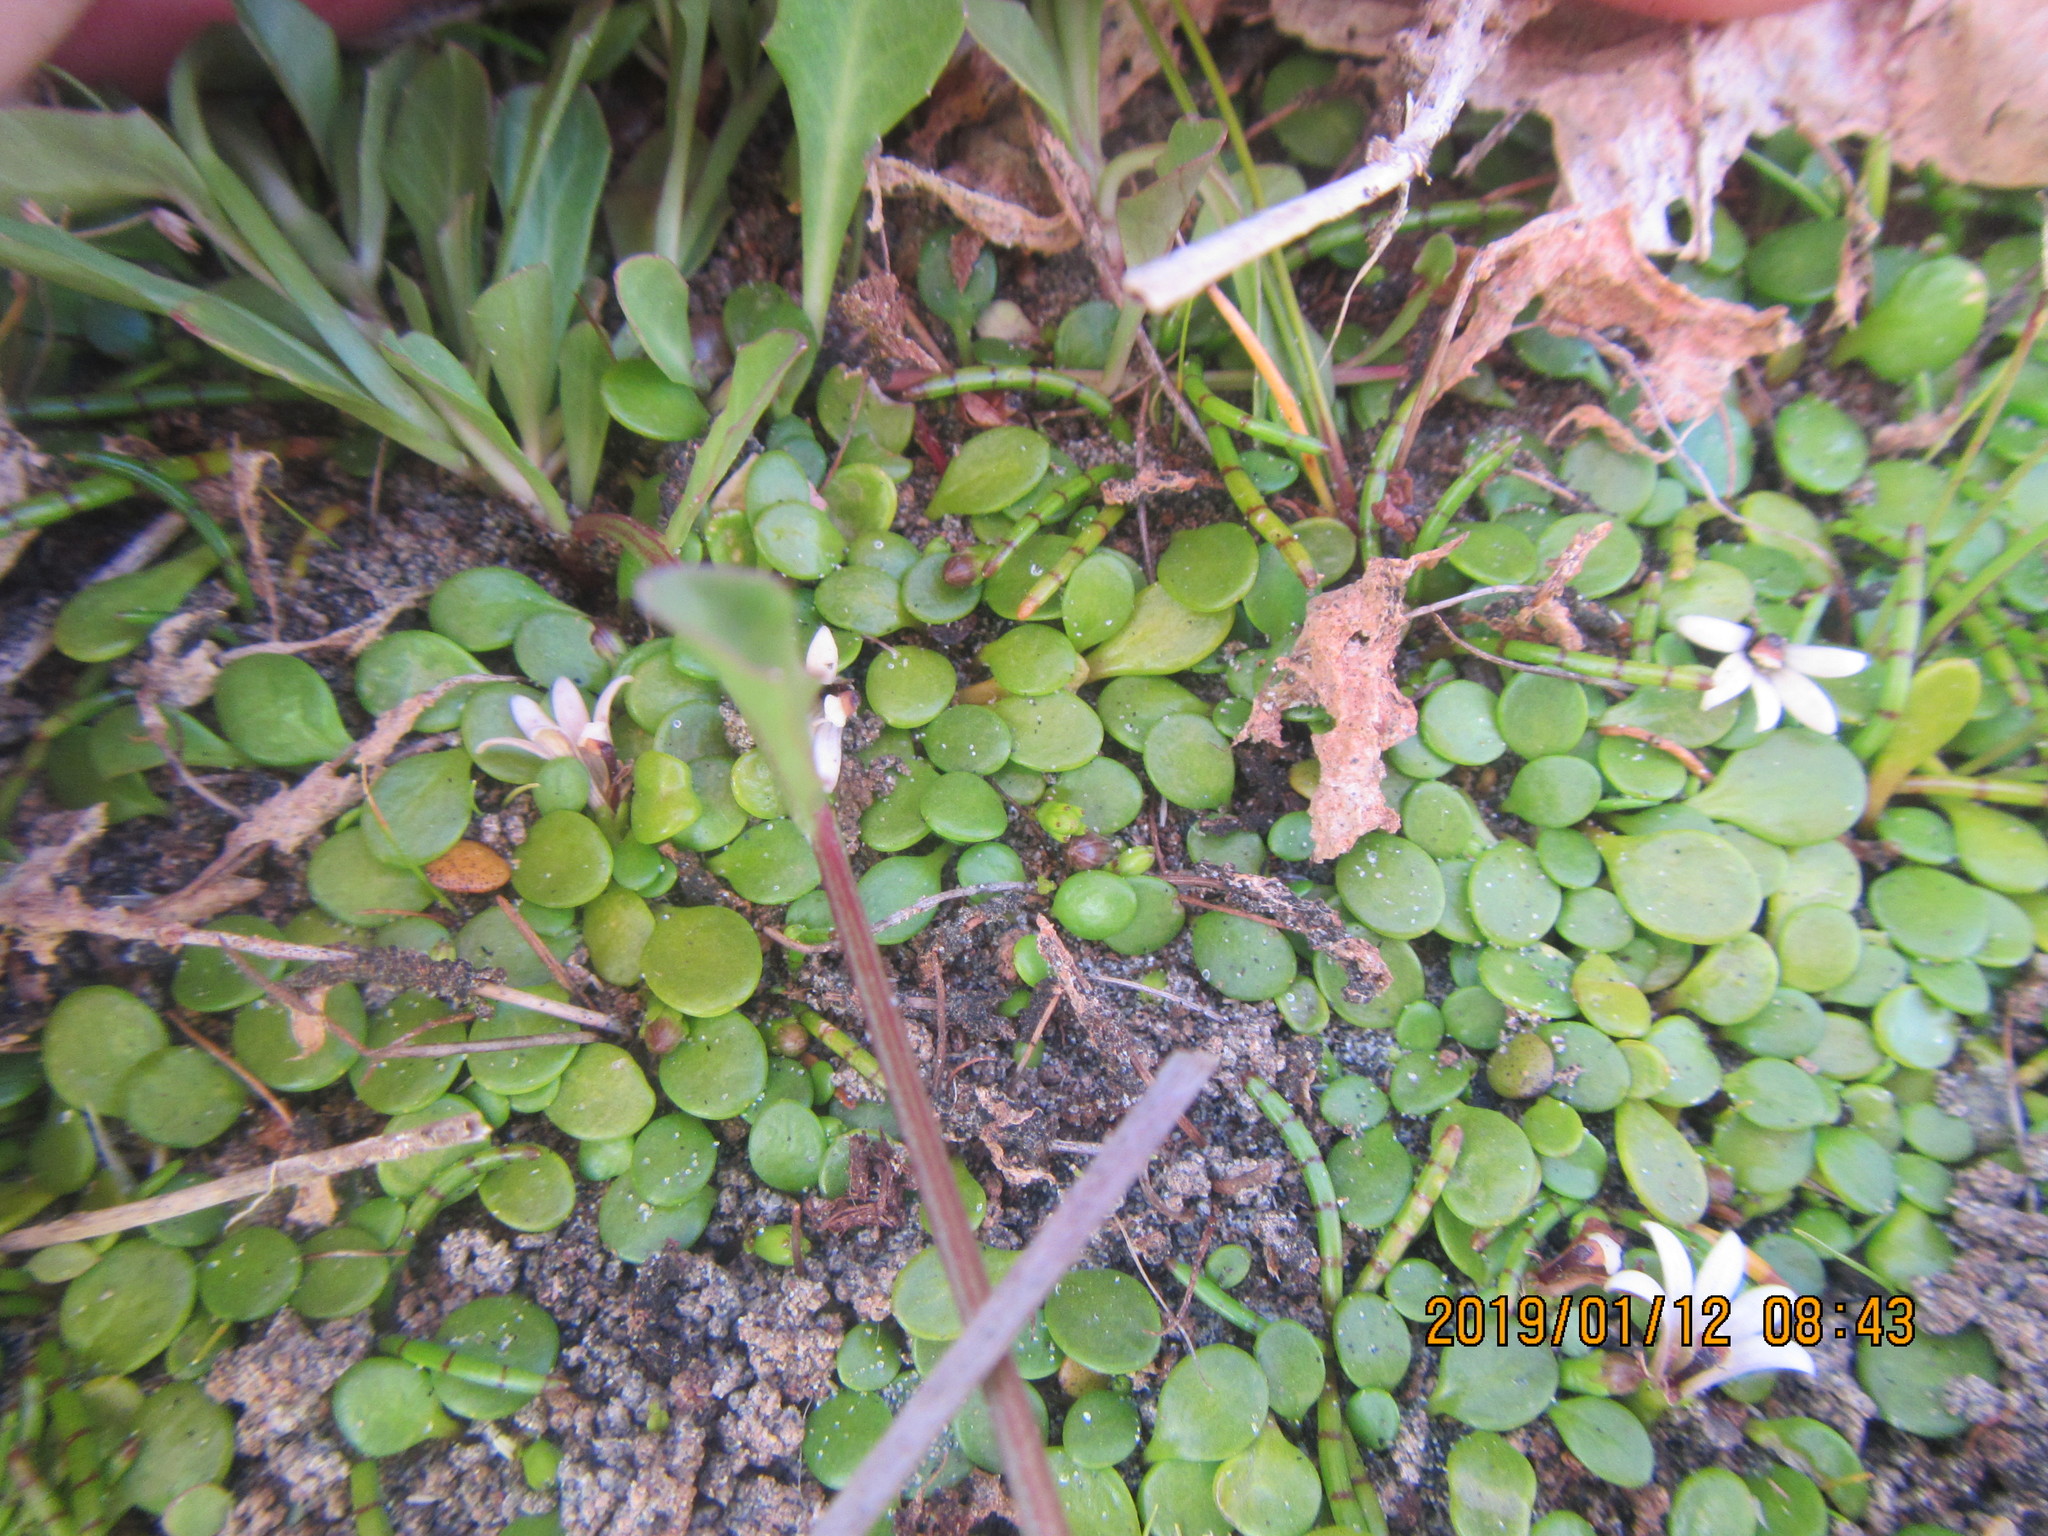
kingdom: Plantae
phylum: Tracheophyta
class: Magnoliopsida
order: Asterales
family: Goodeniaceae
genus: Goodenia
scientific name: Goodenia heenanii
